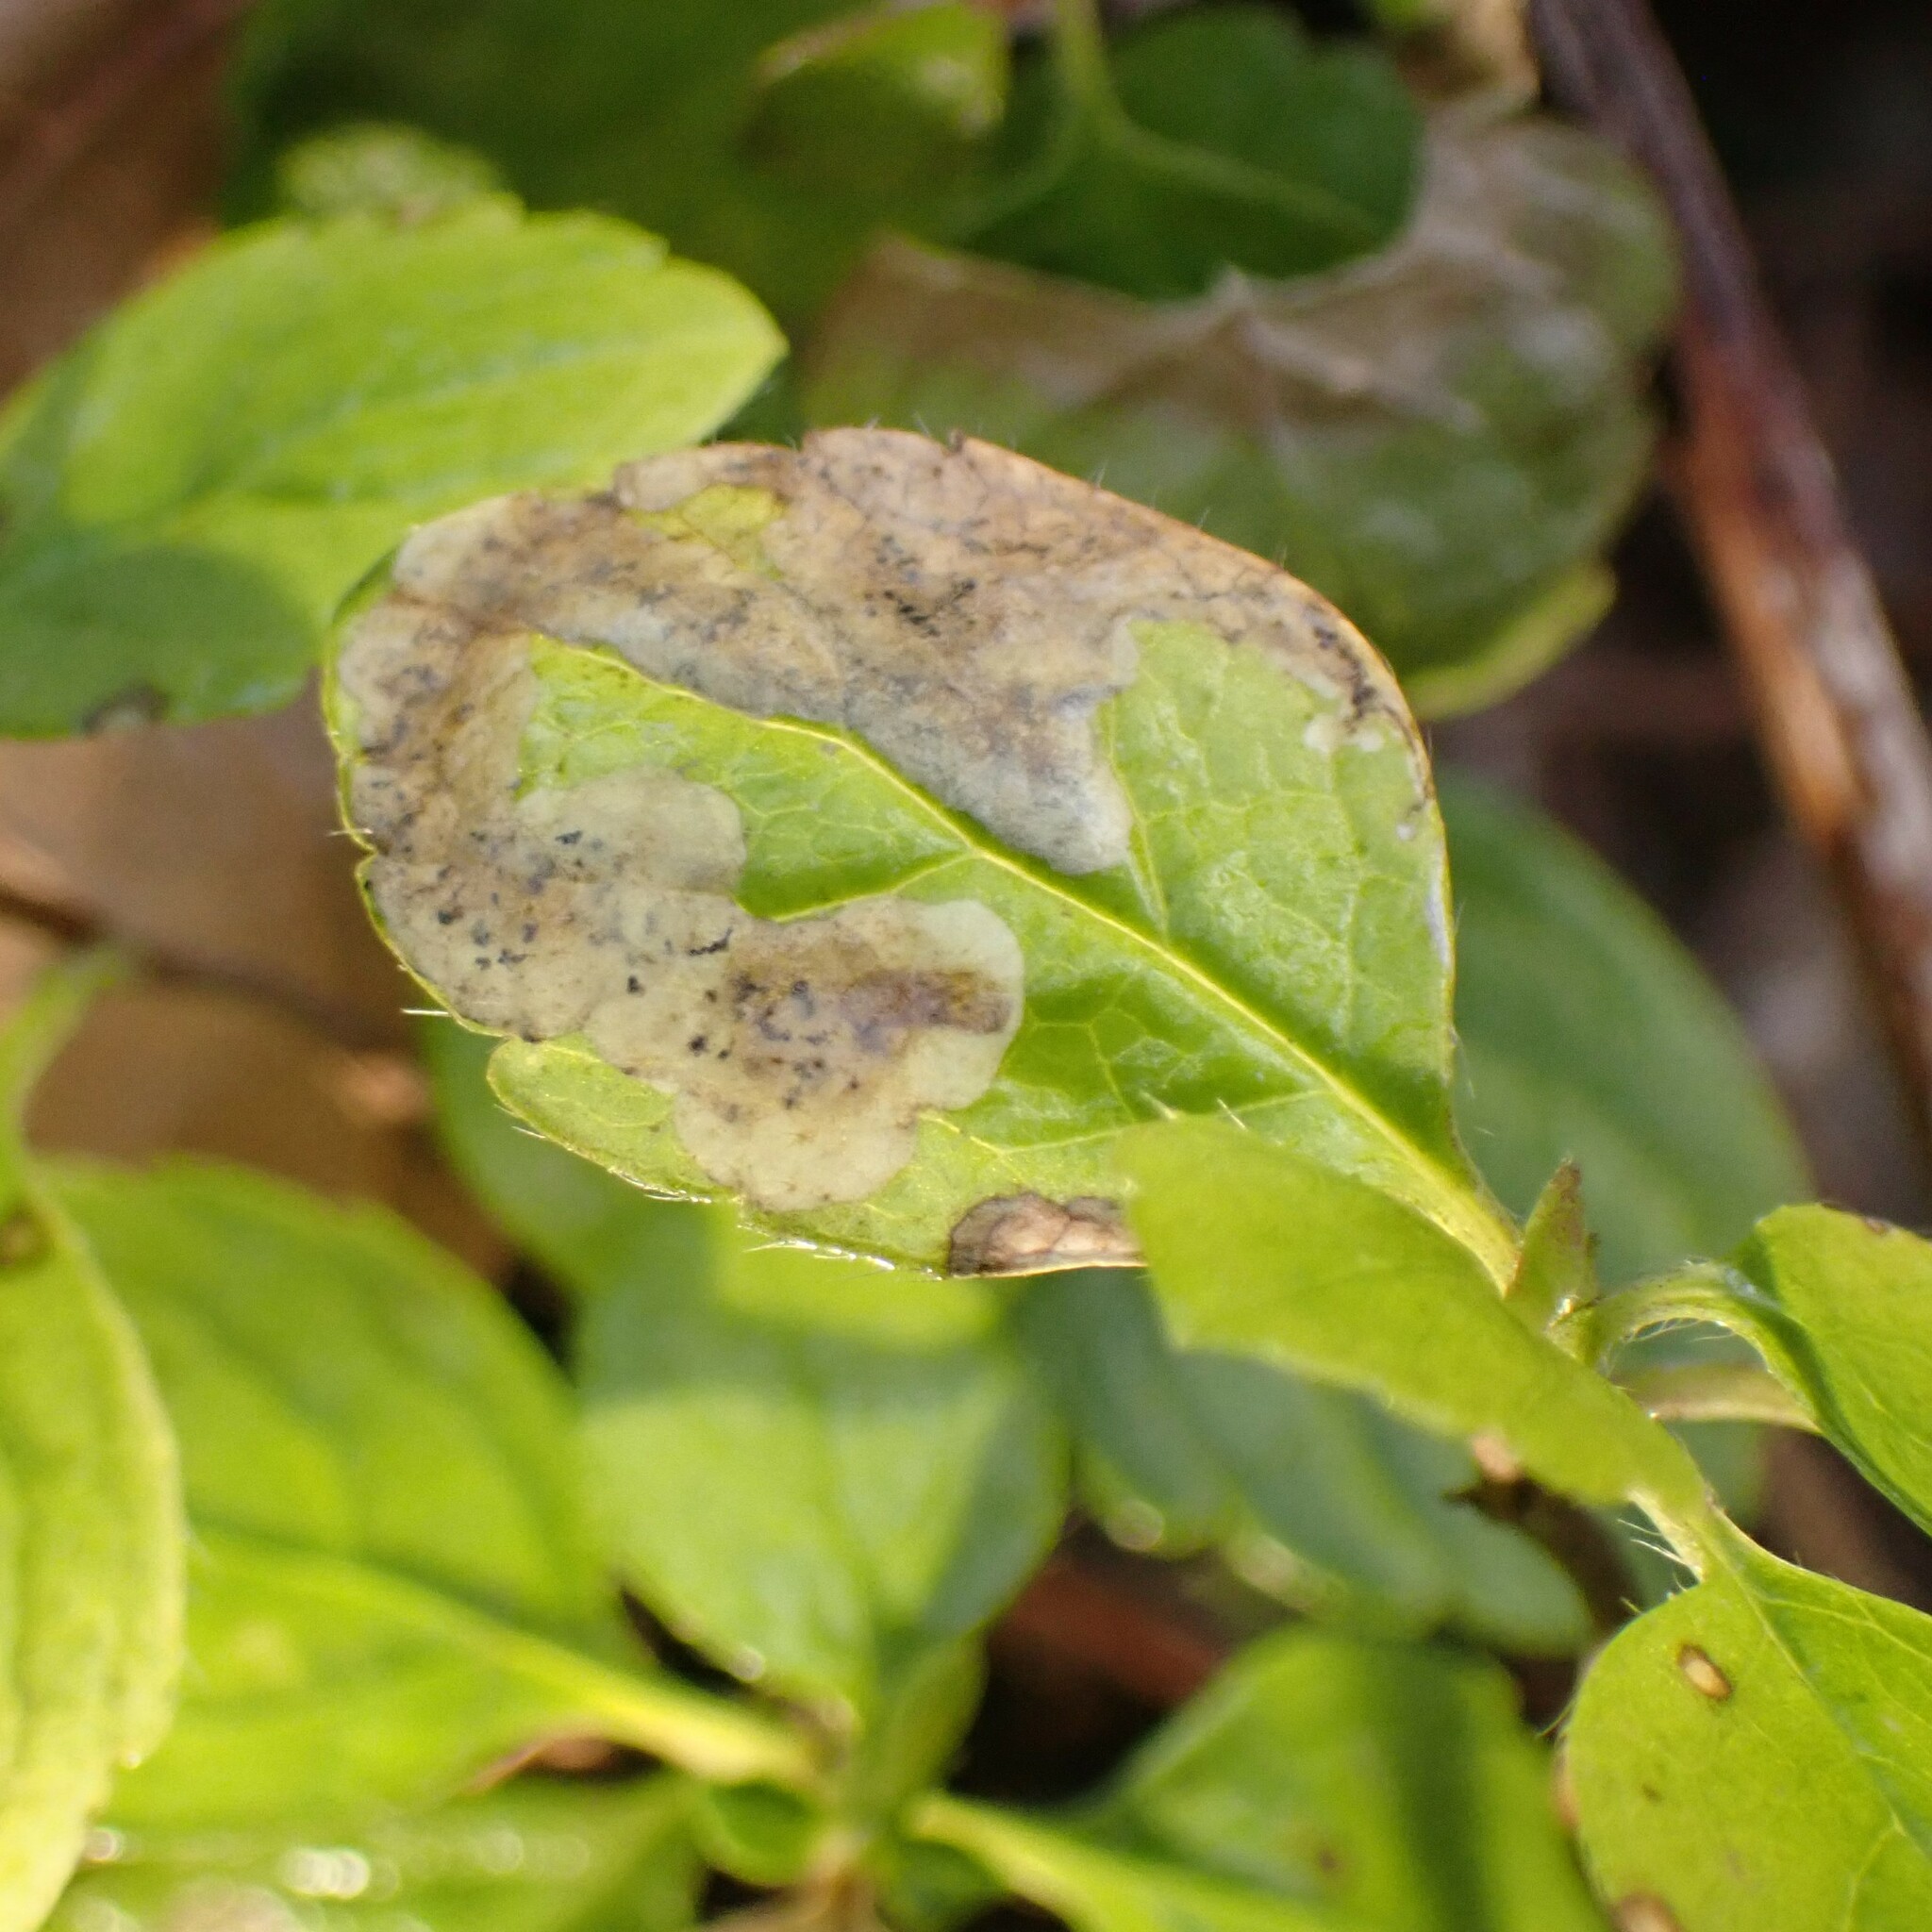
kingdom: Animalia
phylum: Arthropoda
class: Insecta
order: Diptera
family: Agromyzidae
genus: Phytomyza
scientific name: Phytomyza linnaeae
